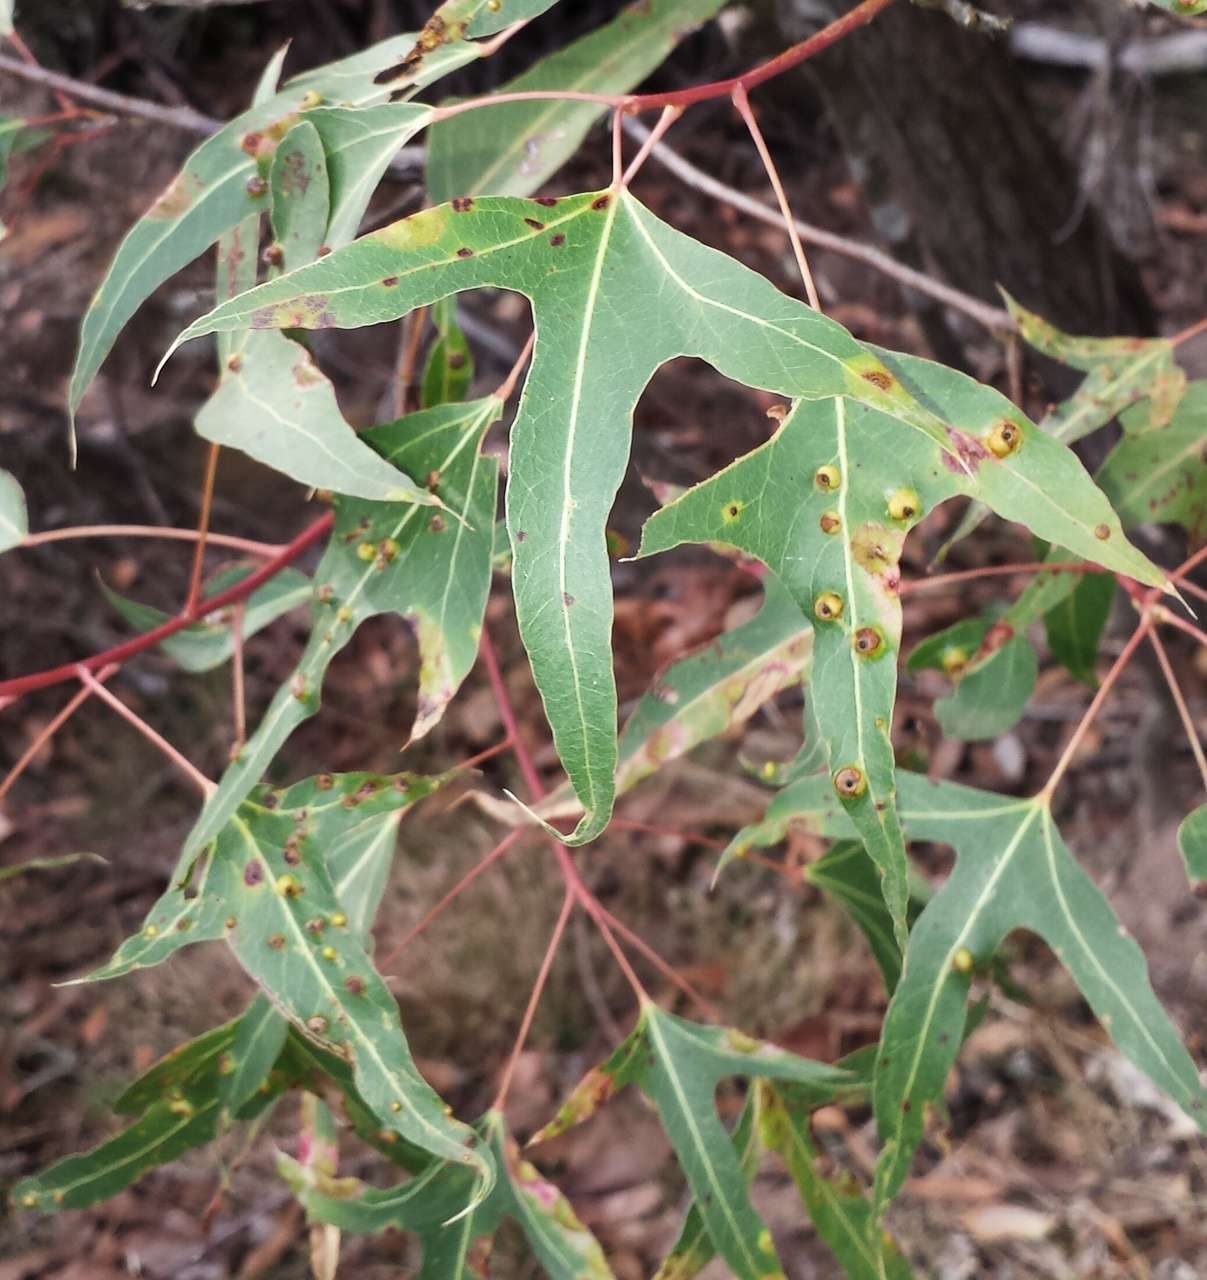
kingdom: Plantae
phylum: Tracheophyta
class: Magnoliopsida
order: Malvales
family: Malvaceae
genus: Brachychiton
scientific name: Brachychiton populneus
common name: Kurrajong
